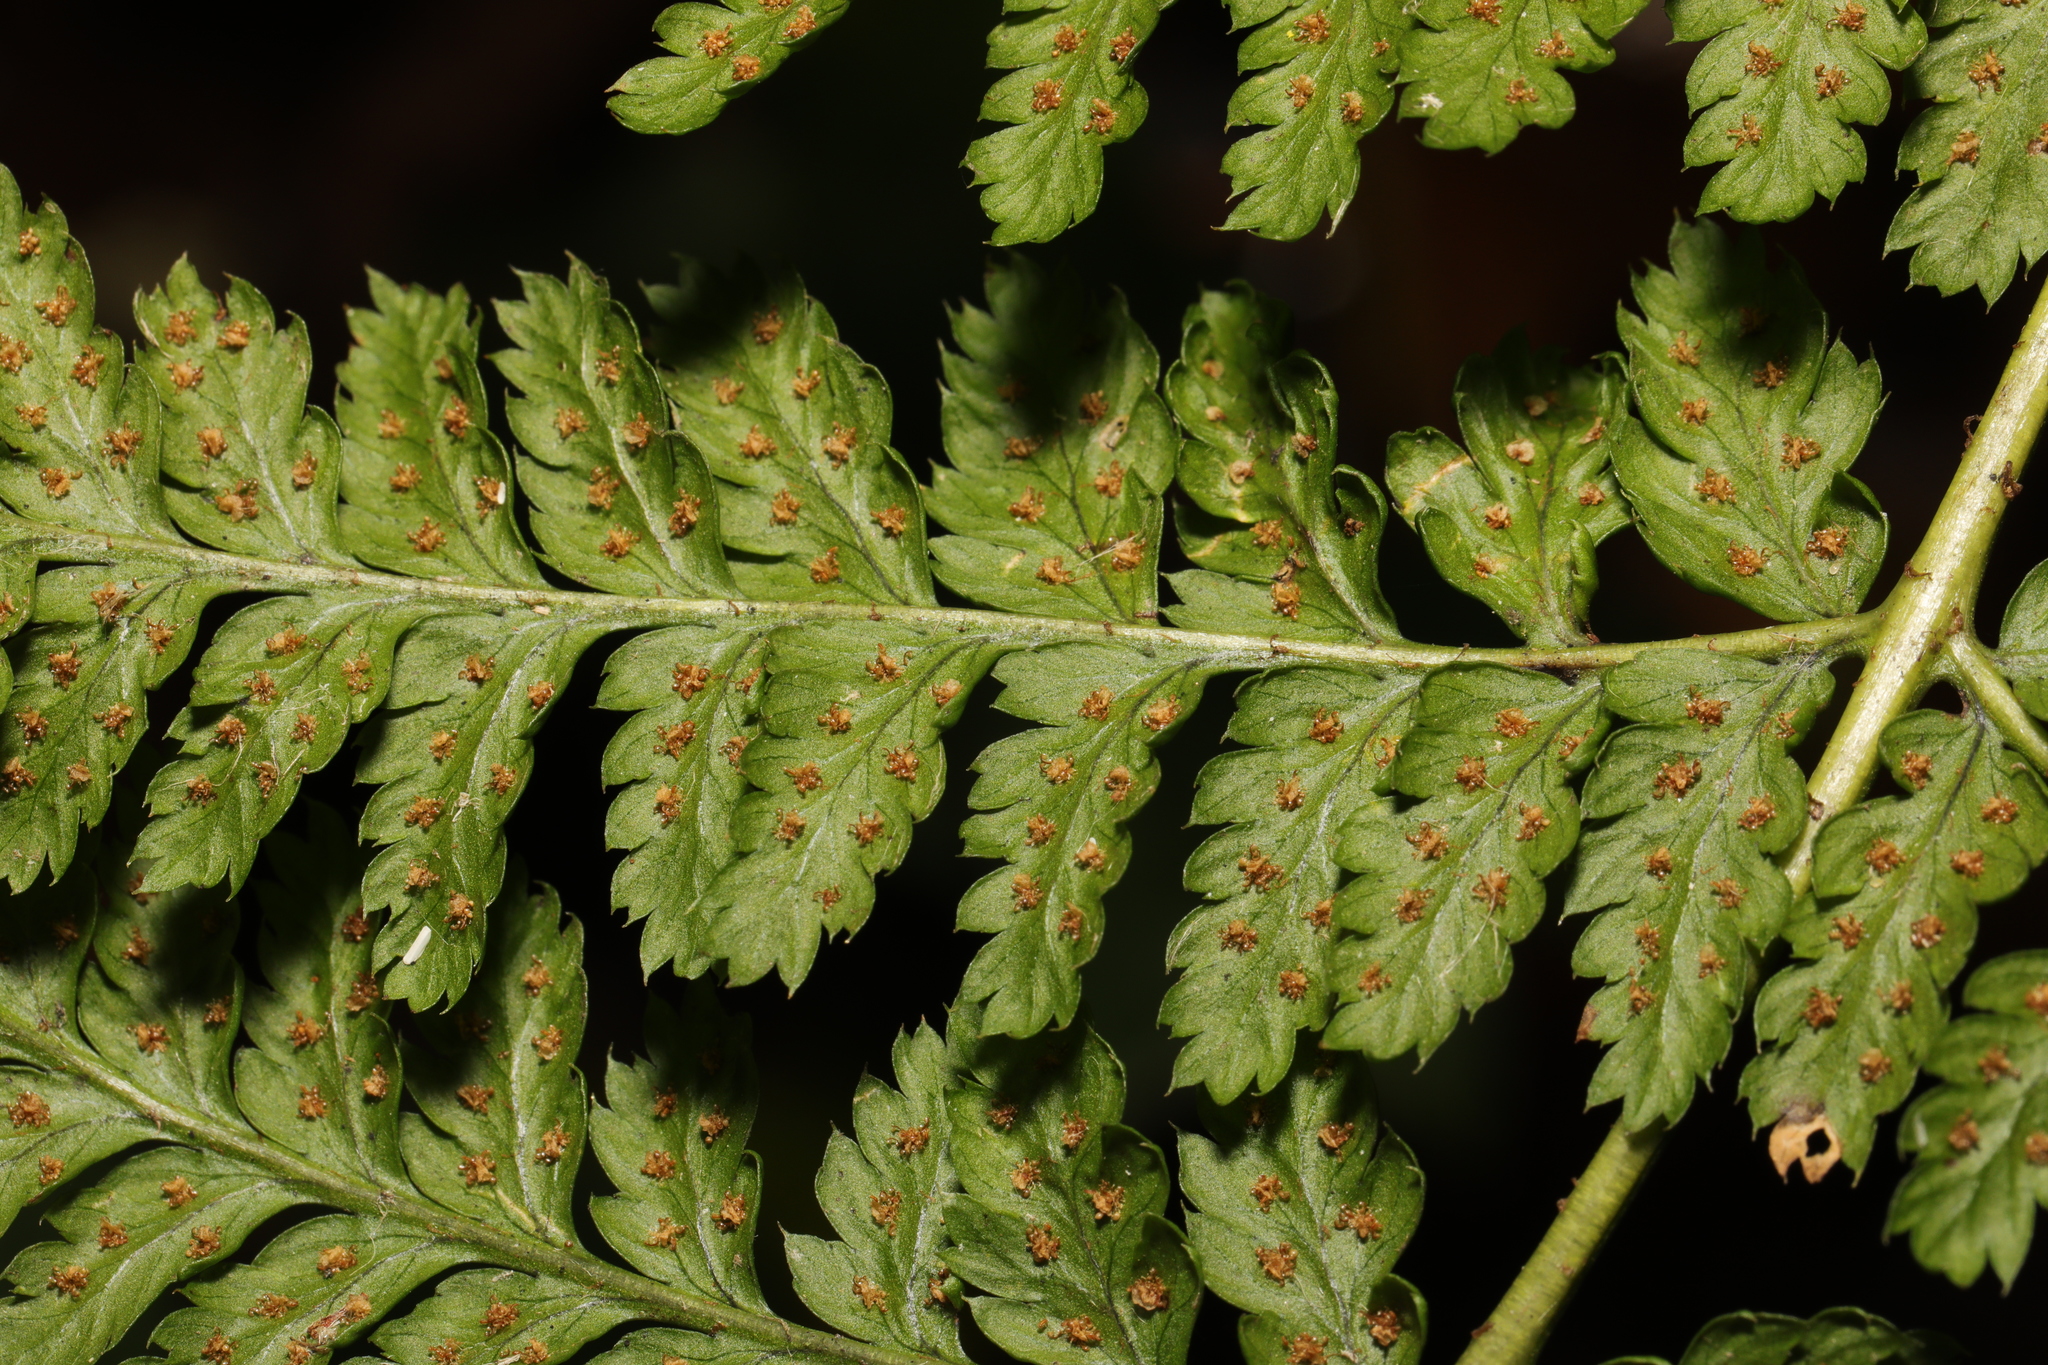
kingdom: Plantae
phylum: Tracheophyta
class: Polypodiopsida
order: Polypodiales
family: Dryopteridaceae
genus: Dryopteris
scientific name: Dryopteris dilatata
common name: Broad buckler-fern
